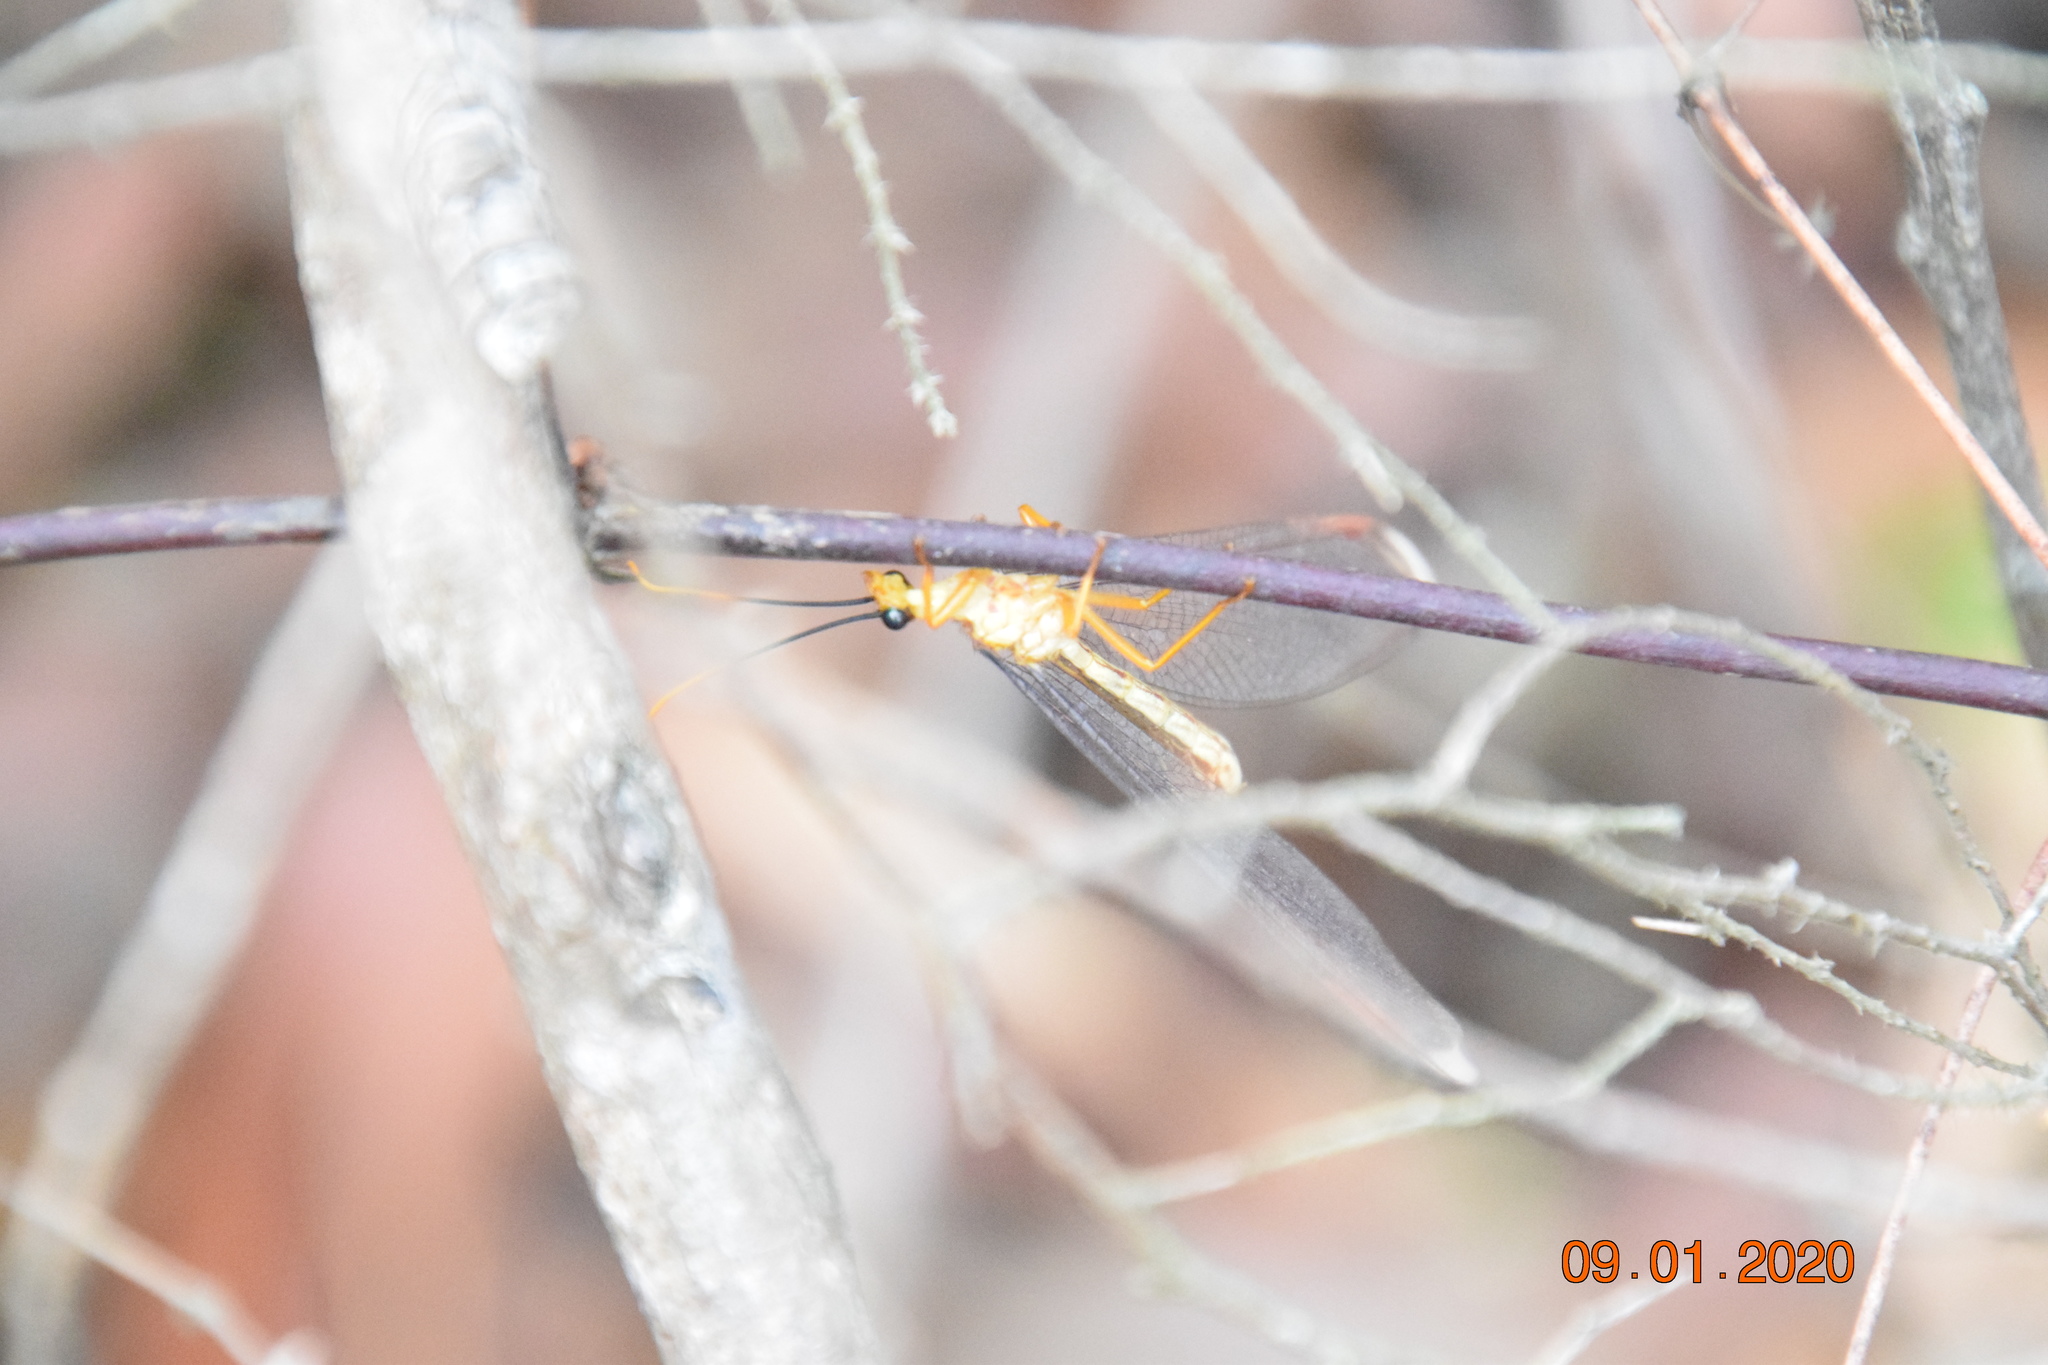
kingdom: Animalia
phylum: Arthropoda
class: Insecta
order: Neuroptera
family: Nymphidae
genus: Nymphes
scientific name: Nymphes myrmeleonoides
